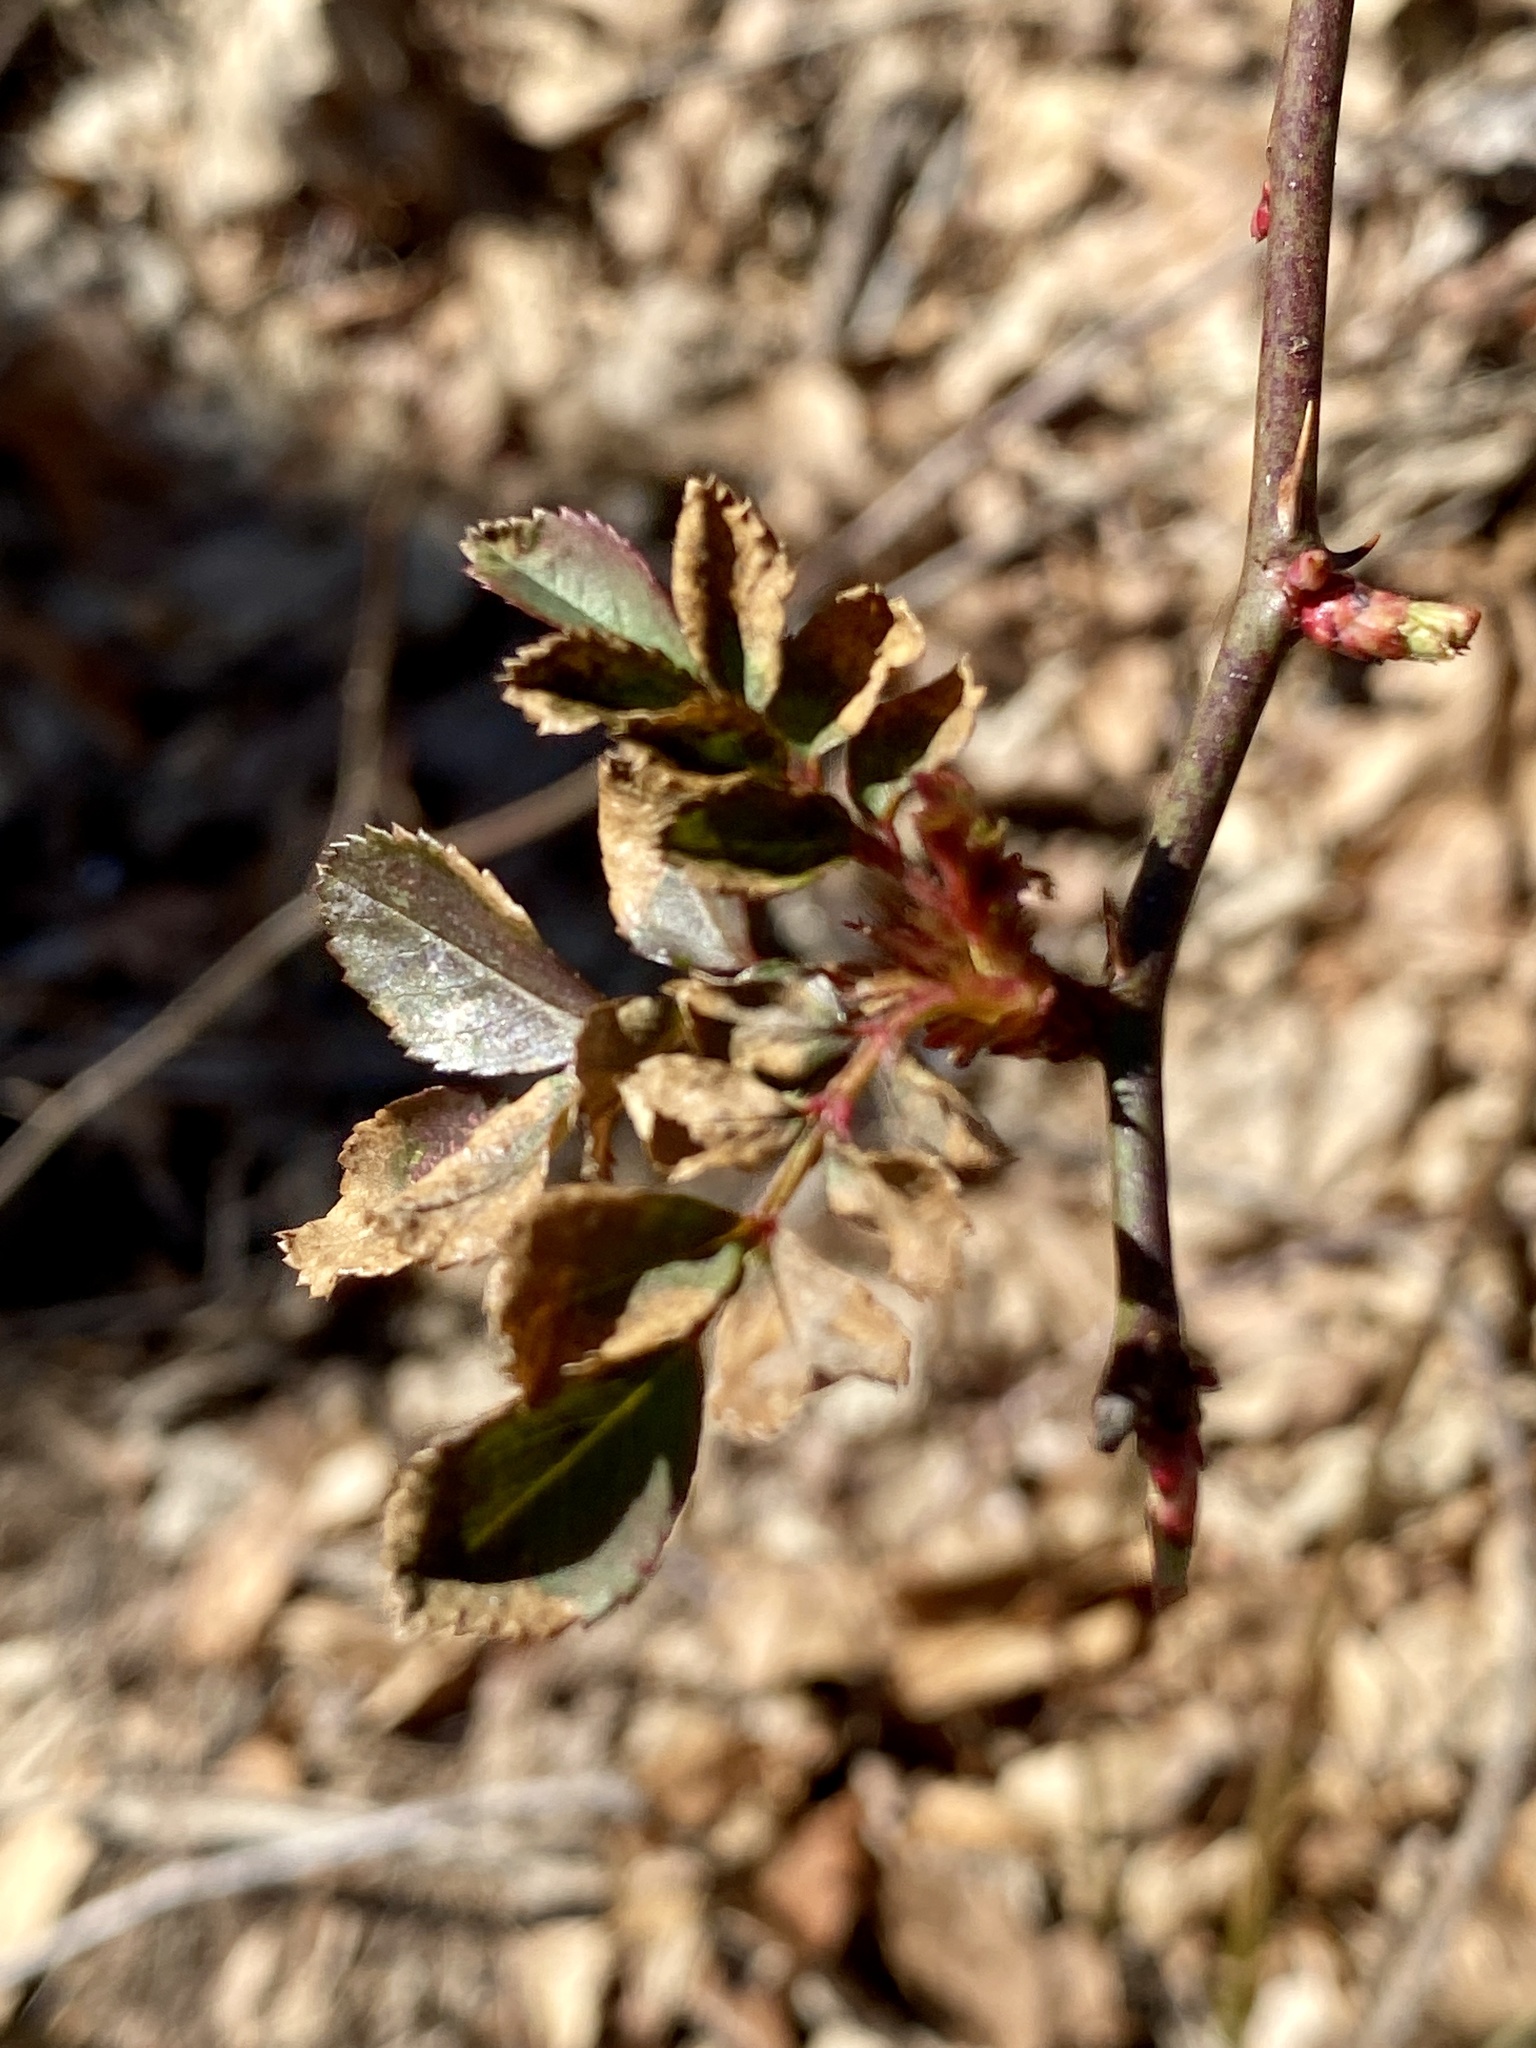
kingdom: Plantae
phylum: Tracheophyta
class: Magnoliopsida
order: Rosales
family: Rosaceae
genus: Rosa
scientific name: Rosa multiflora
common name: Multiflora rose
